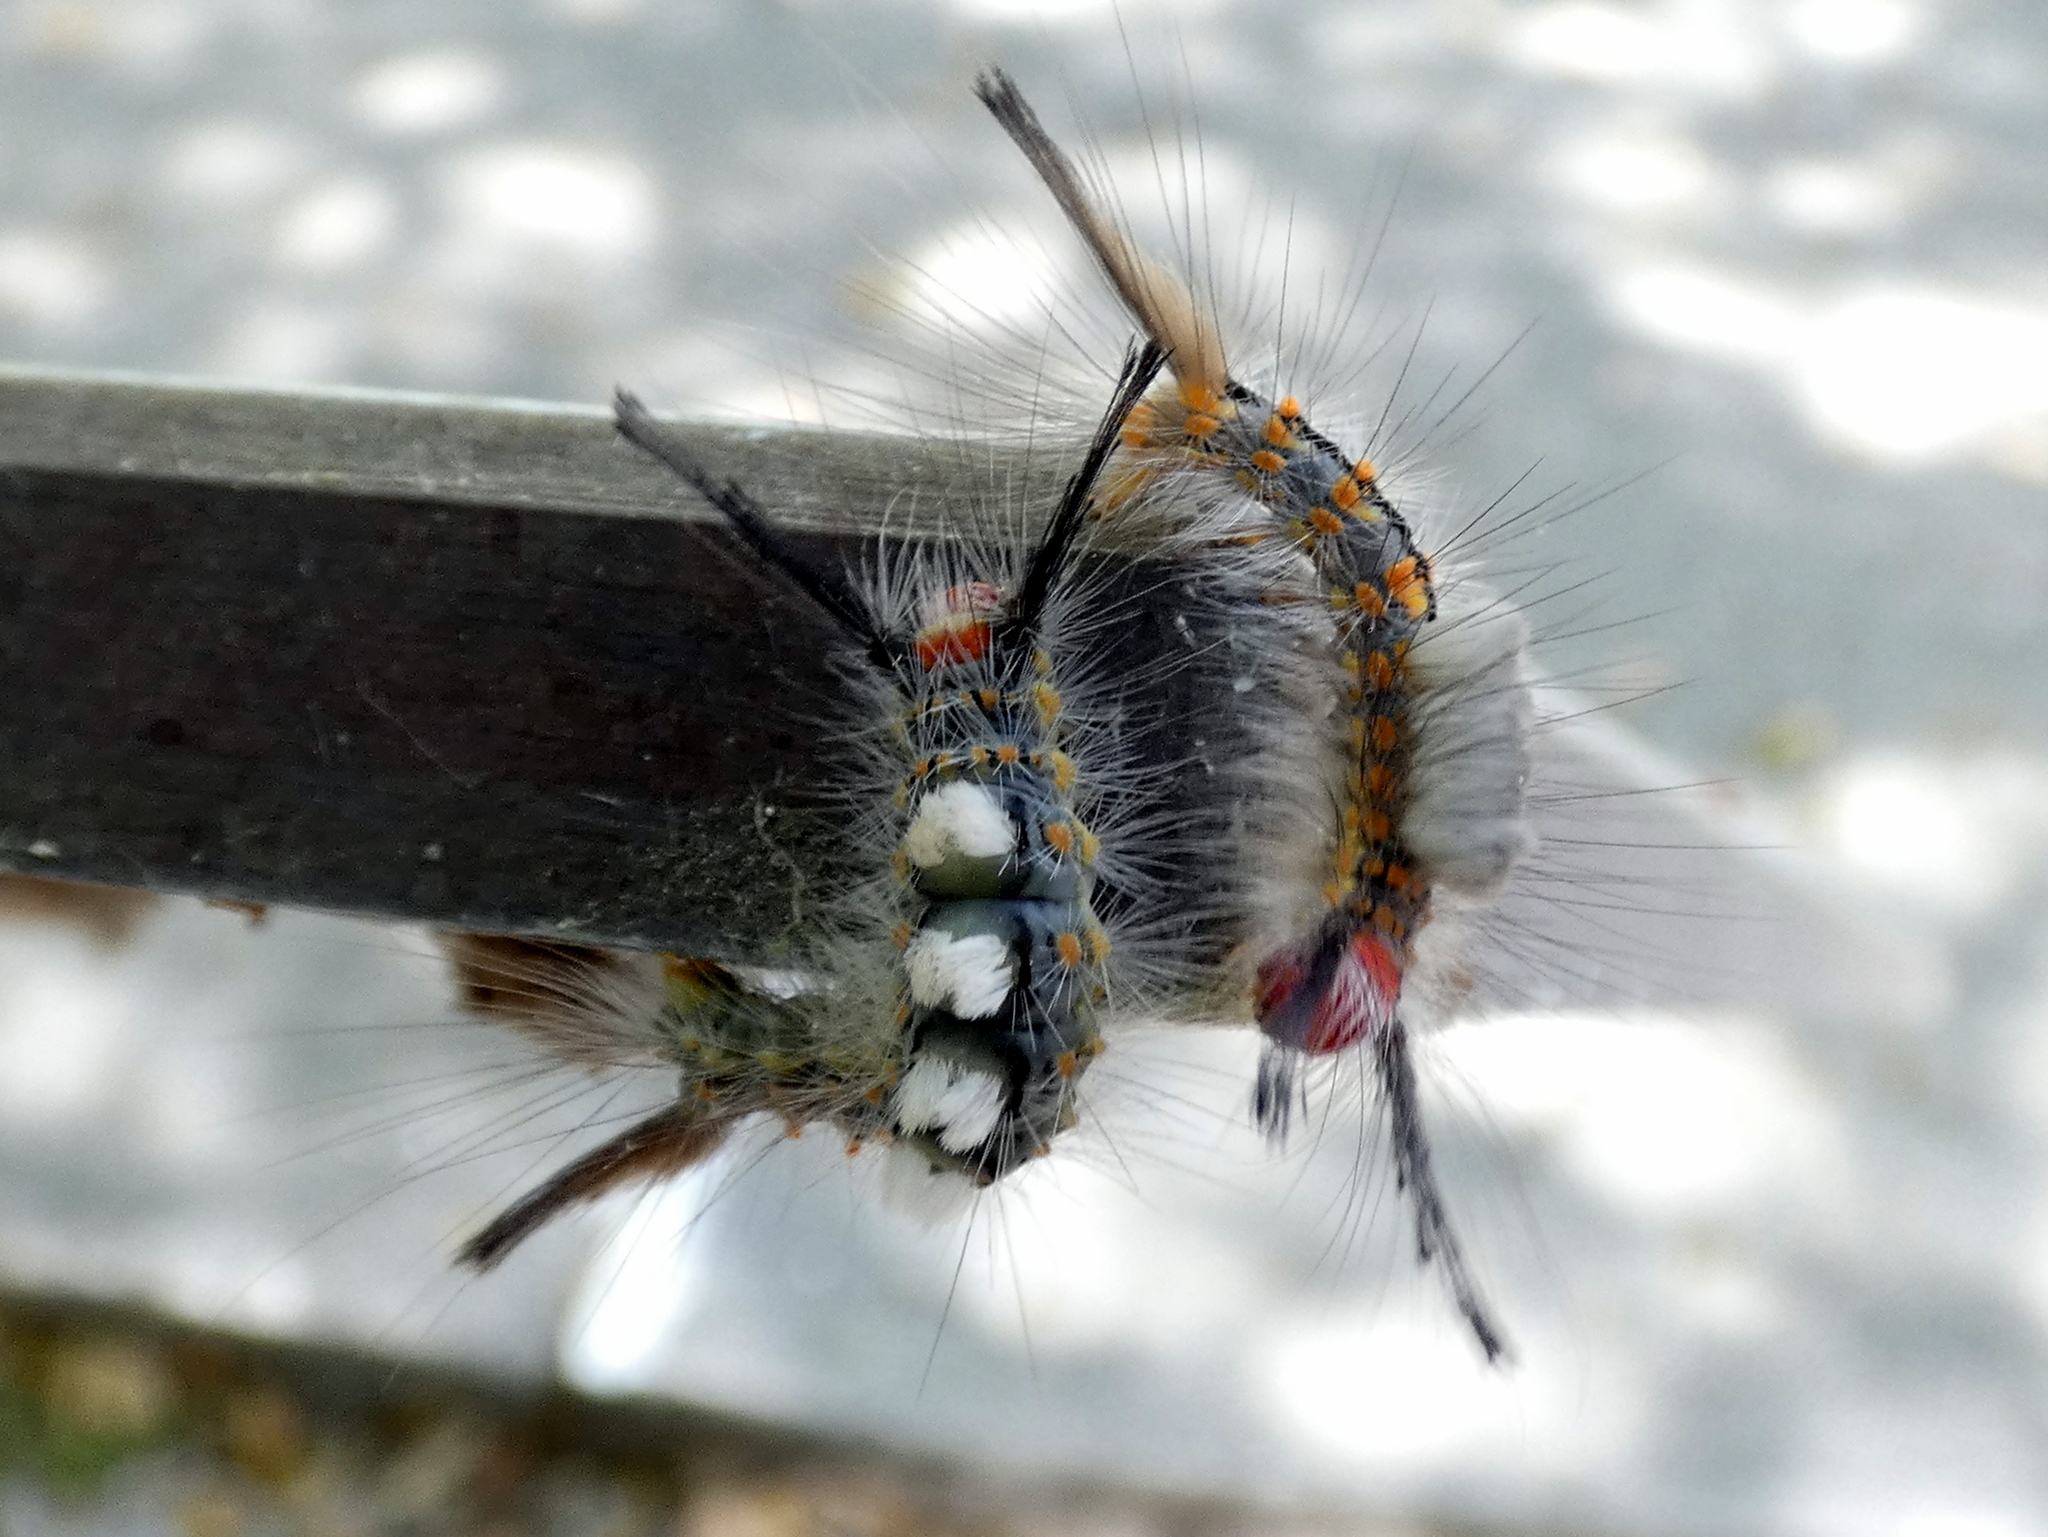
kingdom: Animalia
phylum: Arthropoda
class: Insecta
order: Lepidoptera
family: Erebidae
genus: Orgyia
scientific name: Orgyia detrita
